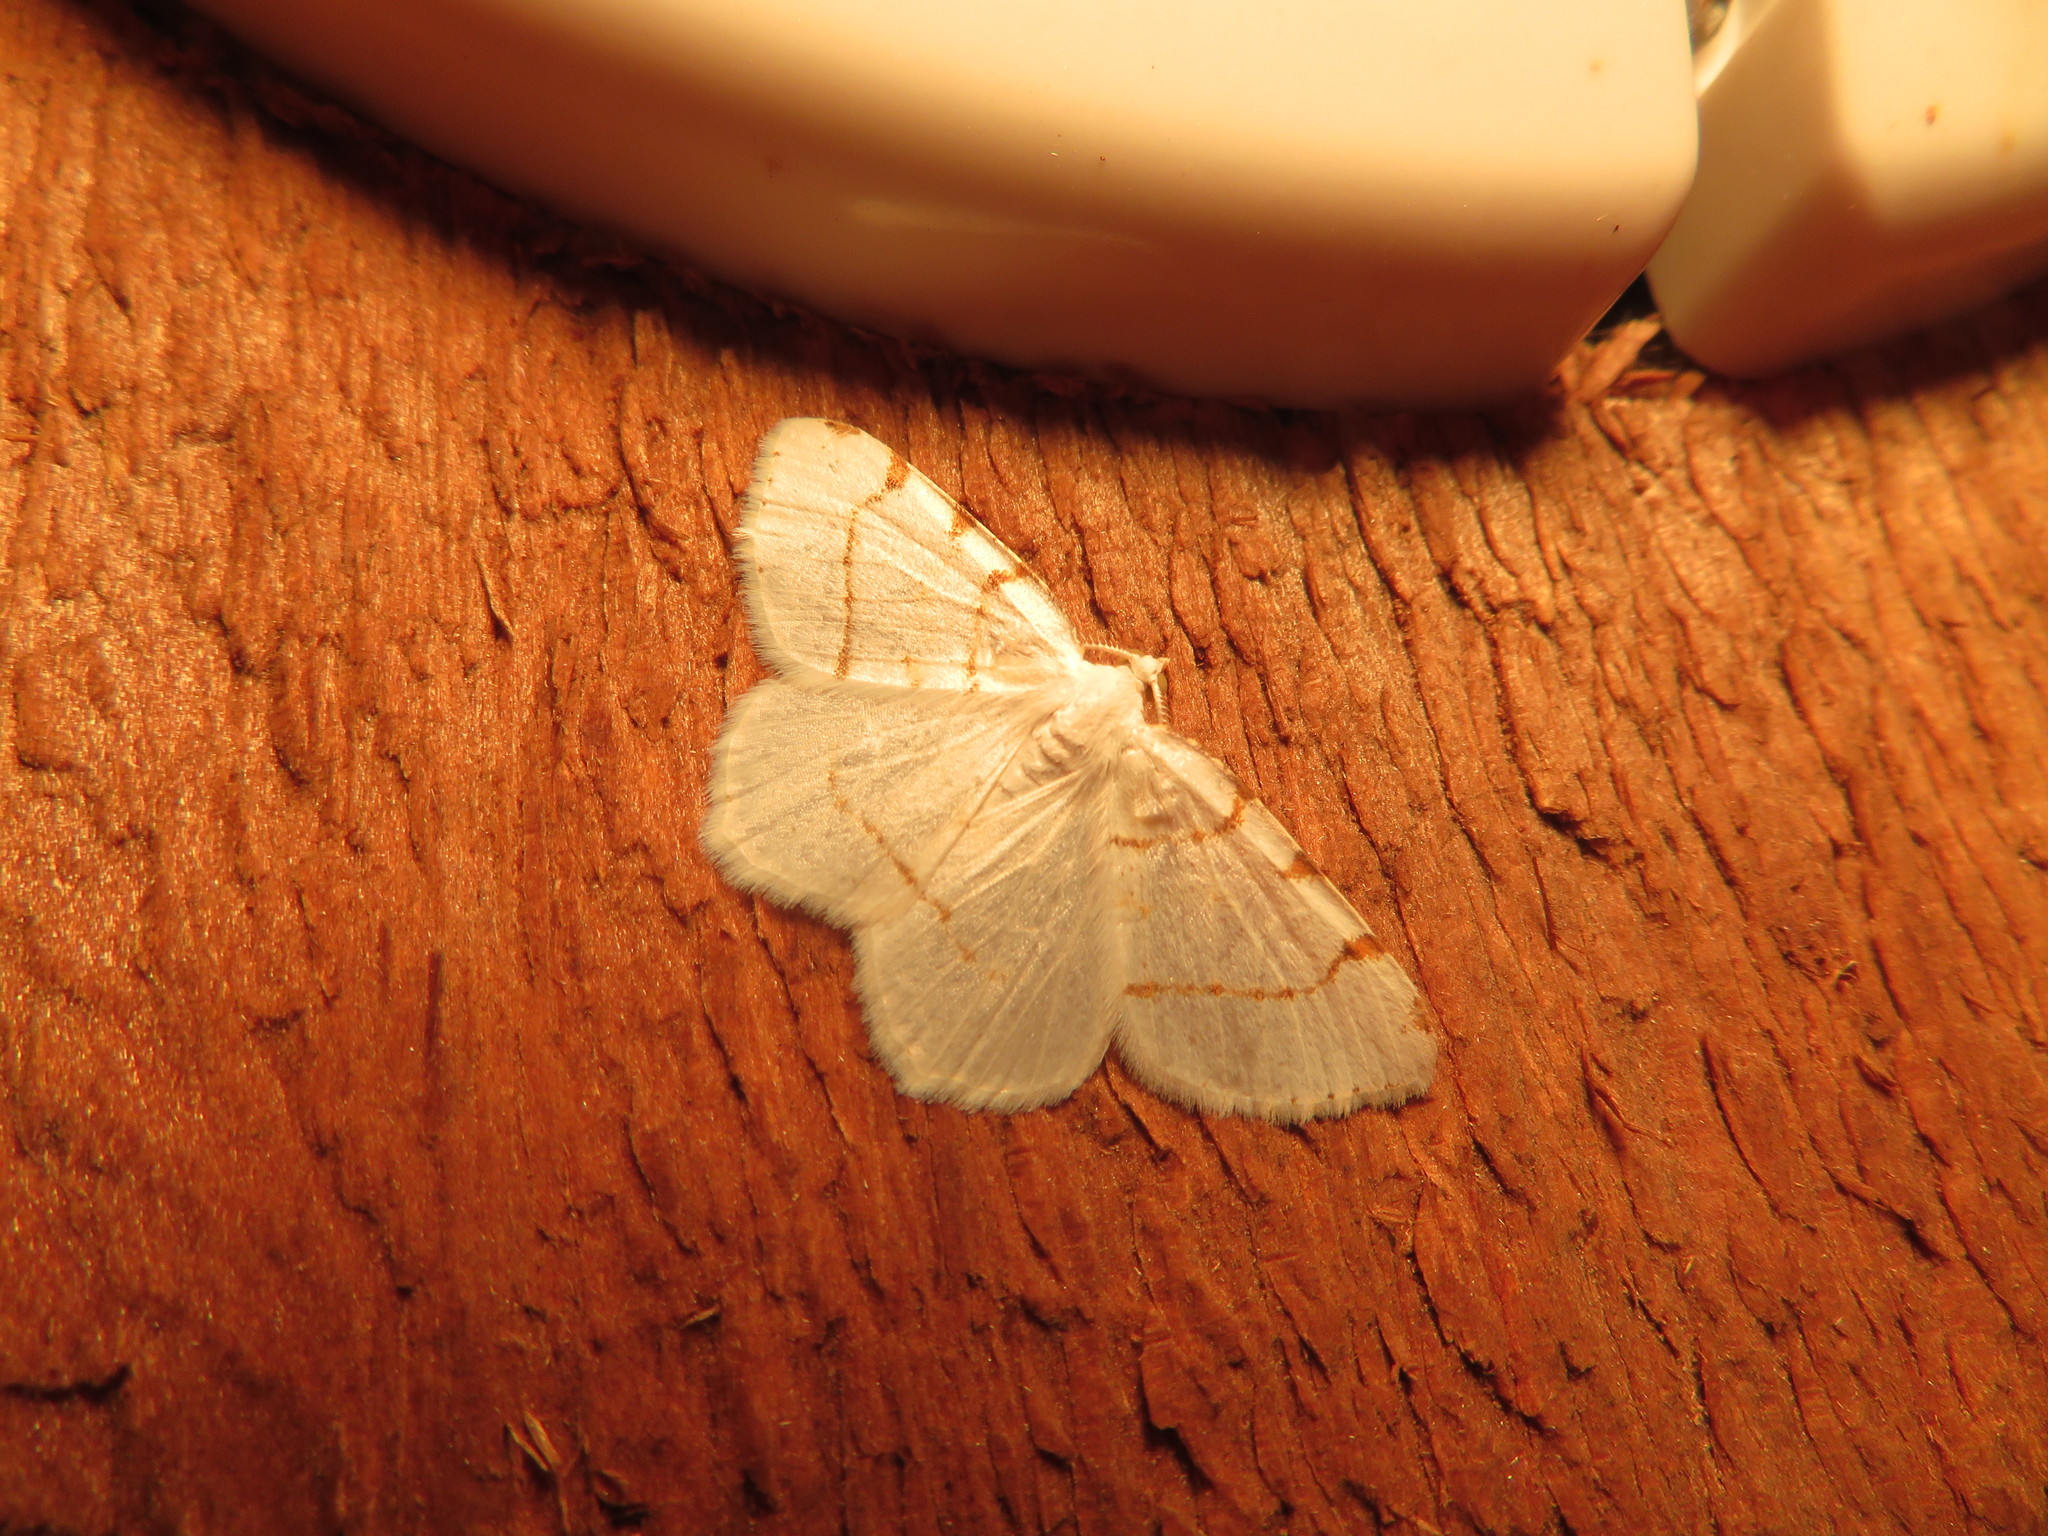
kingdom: Animalia
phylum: Arthropoda
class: Insecta
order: Lepidoptera
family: Geometridae
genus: Macaria
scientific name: Macaria pustularia
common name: Lesser maple spanworm moth
